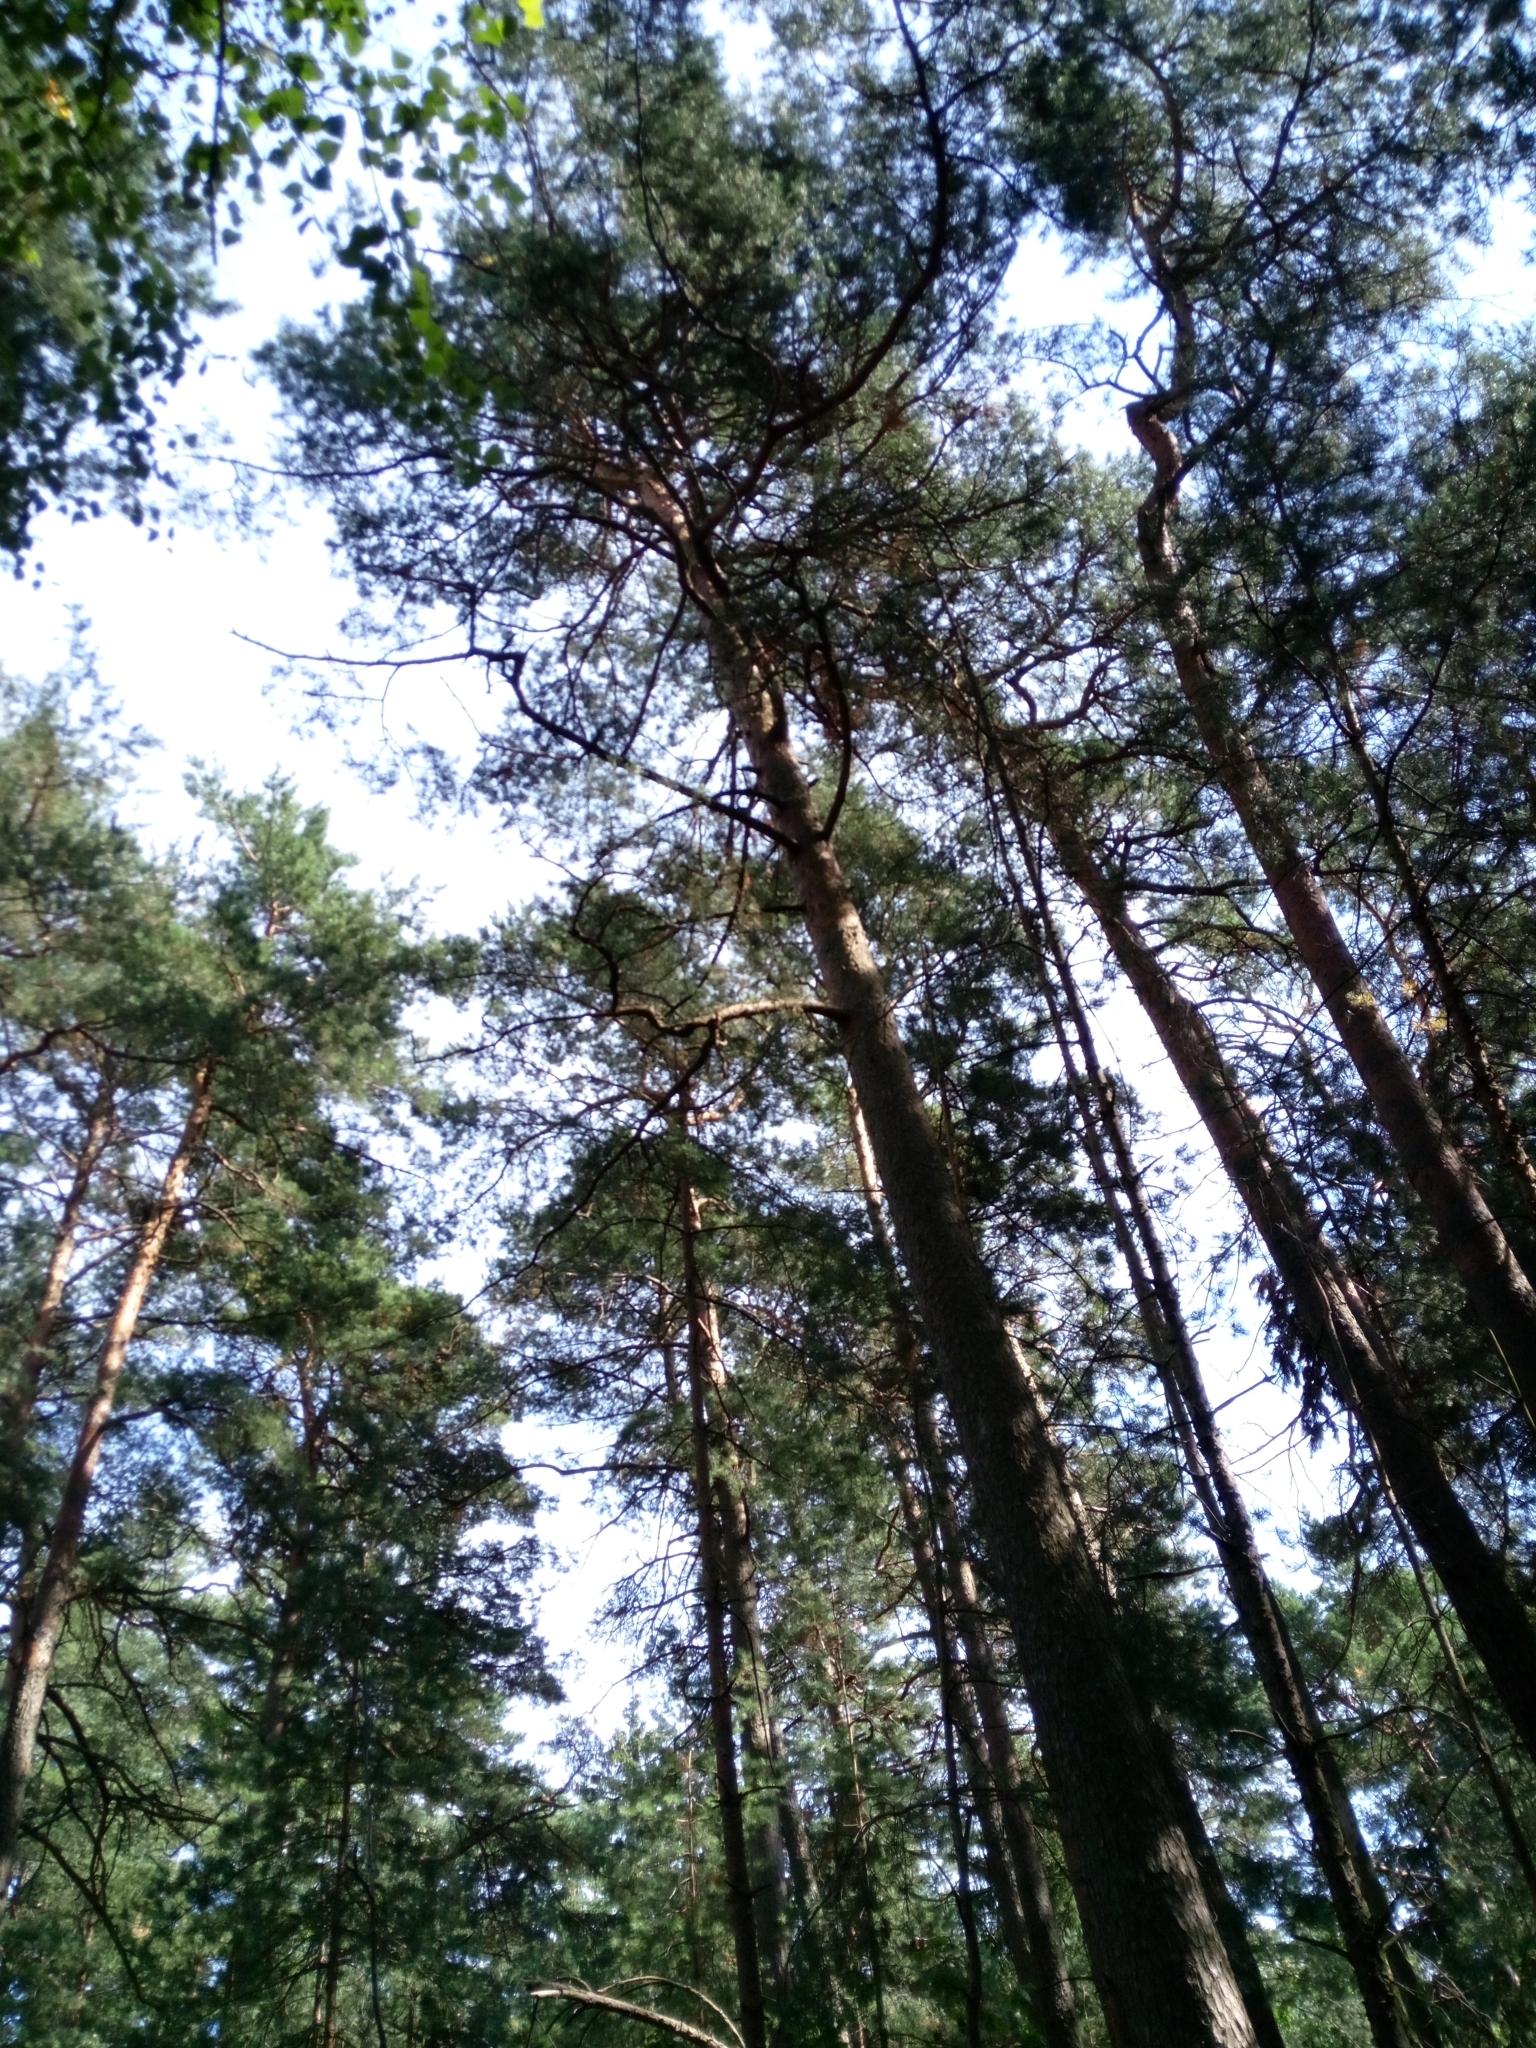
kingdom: Plantae
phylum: Tracheophyta
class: Pinopsida
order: Pinales
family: Pinaceae
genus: Pinus
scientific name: Pinus sylvestris
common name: Scots pine
